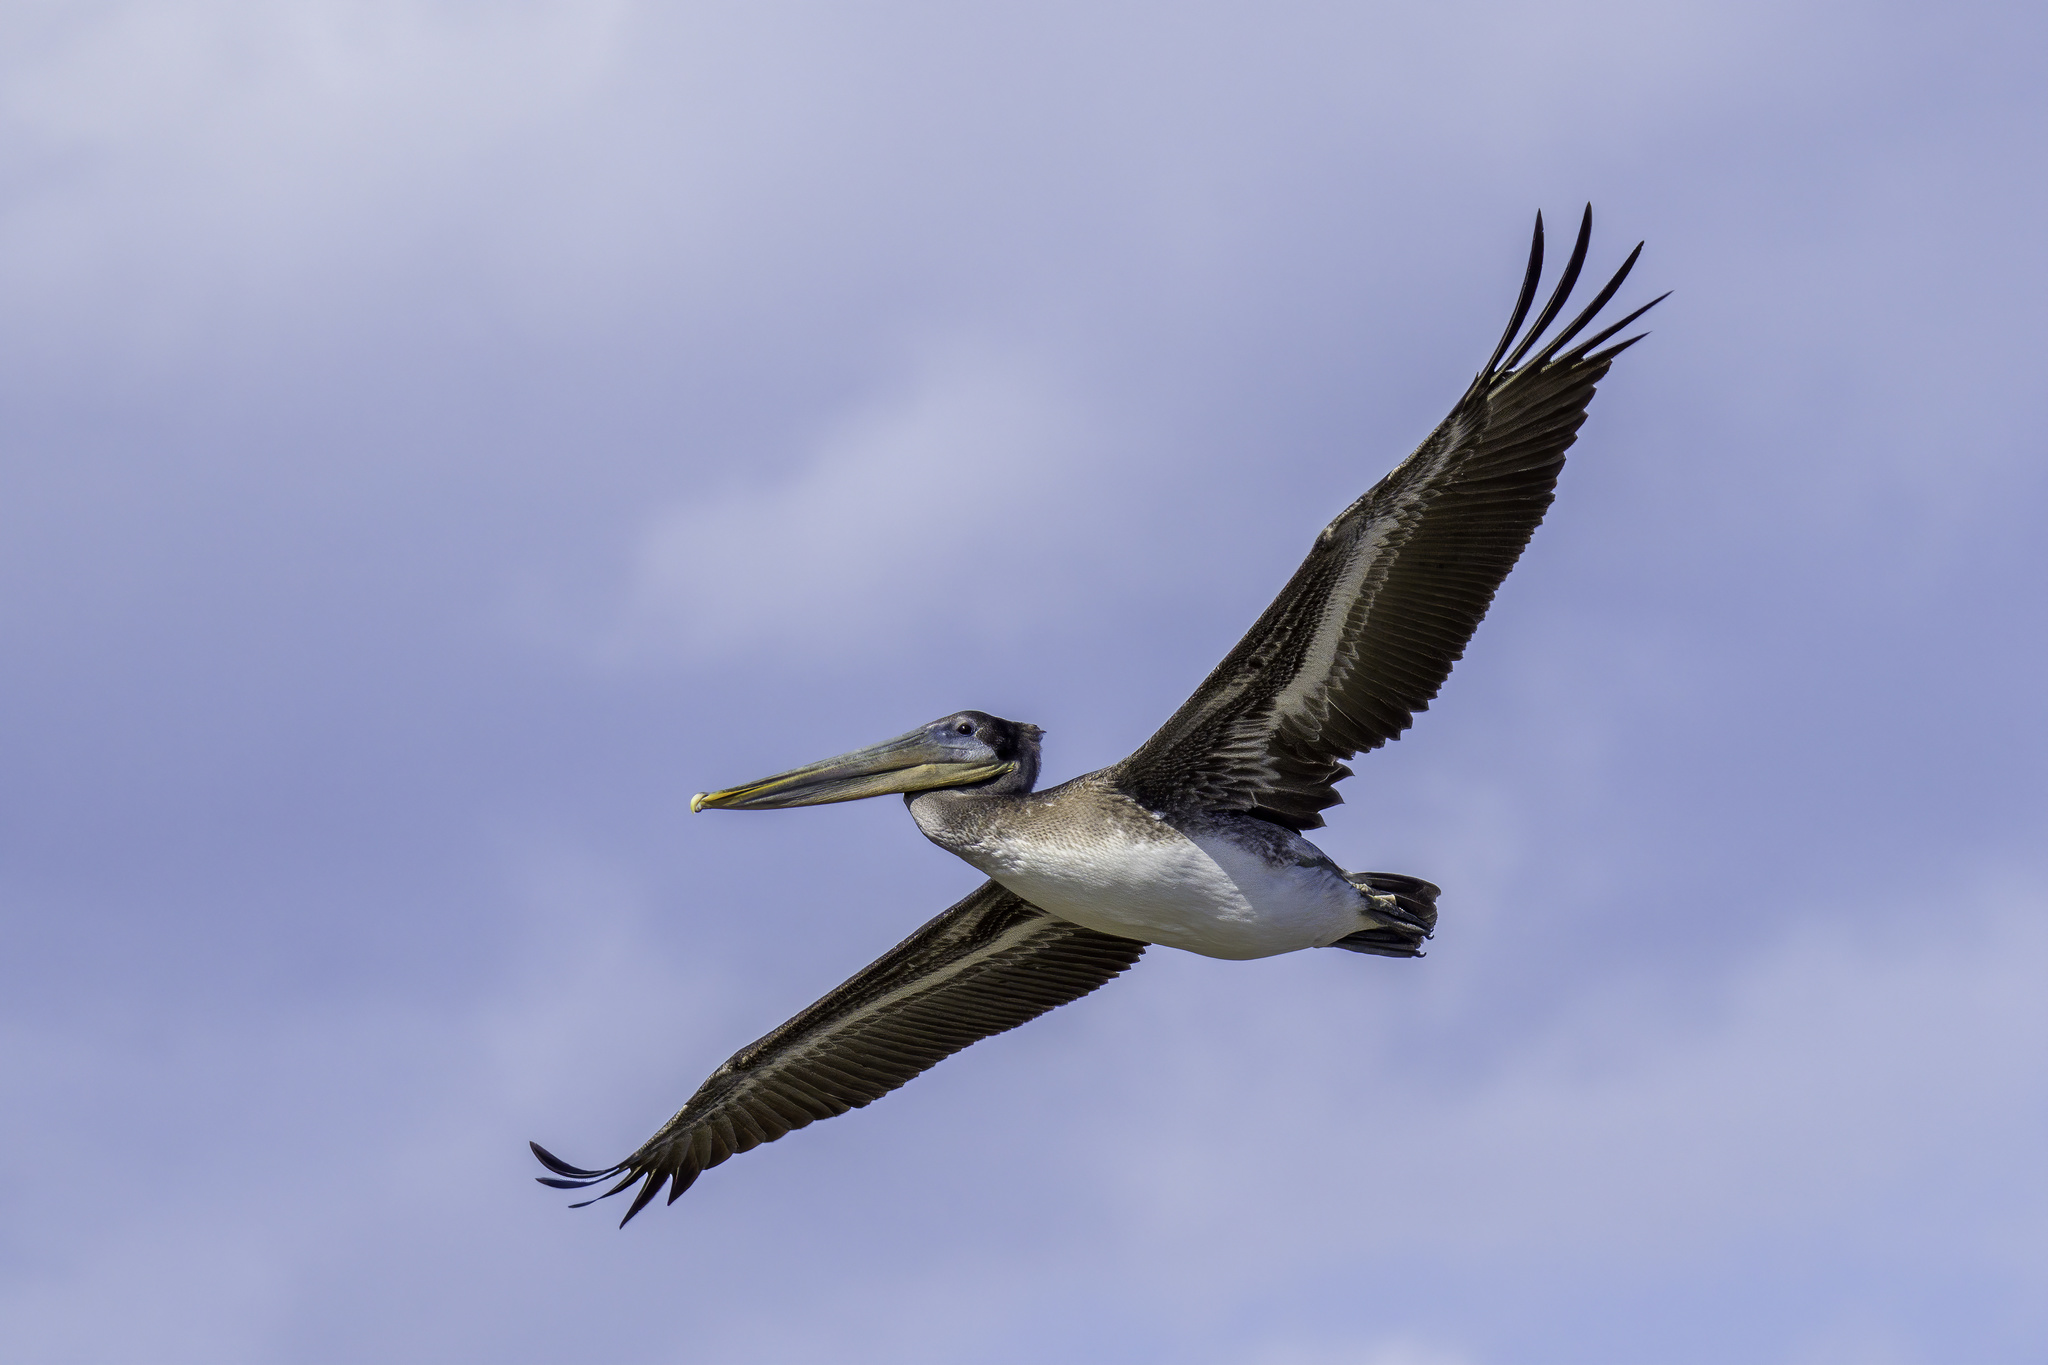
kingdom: Animalia
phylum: Chordata
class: Aves
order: Pelecaniformes
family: Pelecanidae
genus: Pelecanus
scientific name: Pelecanus occidentalis
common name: Brown pelican
